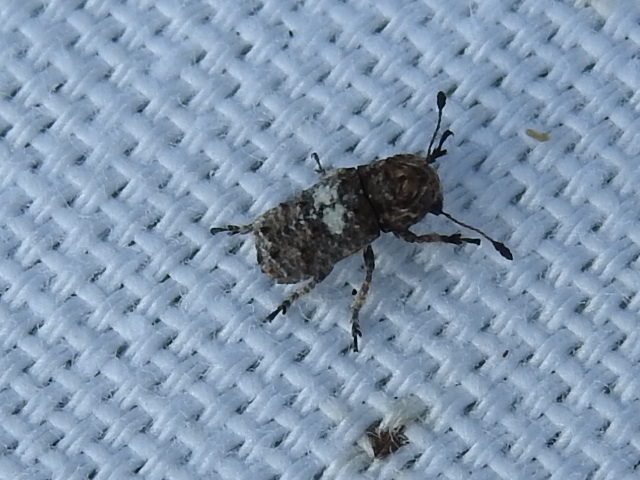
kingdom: Animalia
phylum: Arthropoda
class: Insecta
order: Coleoptera
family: Anthribidae
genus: Toxonotus
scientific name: Toxonotus cornutus
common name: Fungus weevil
